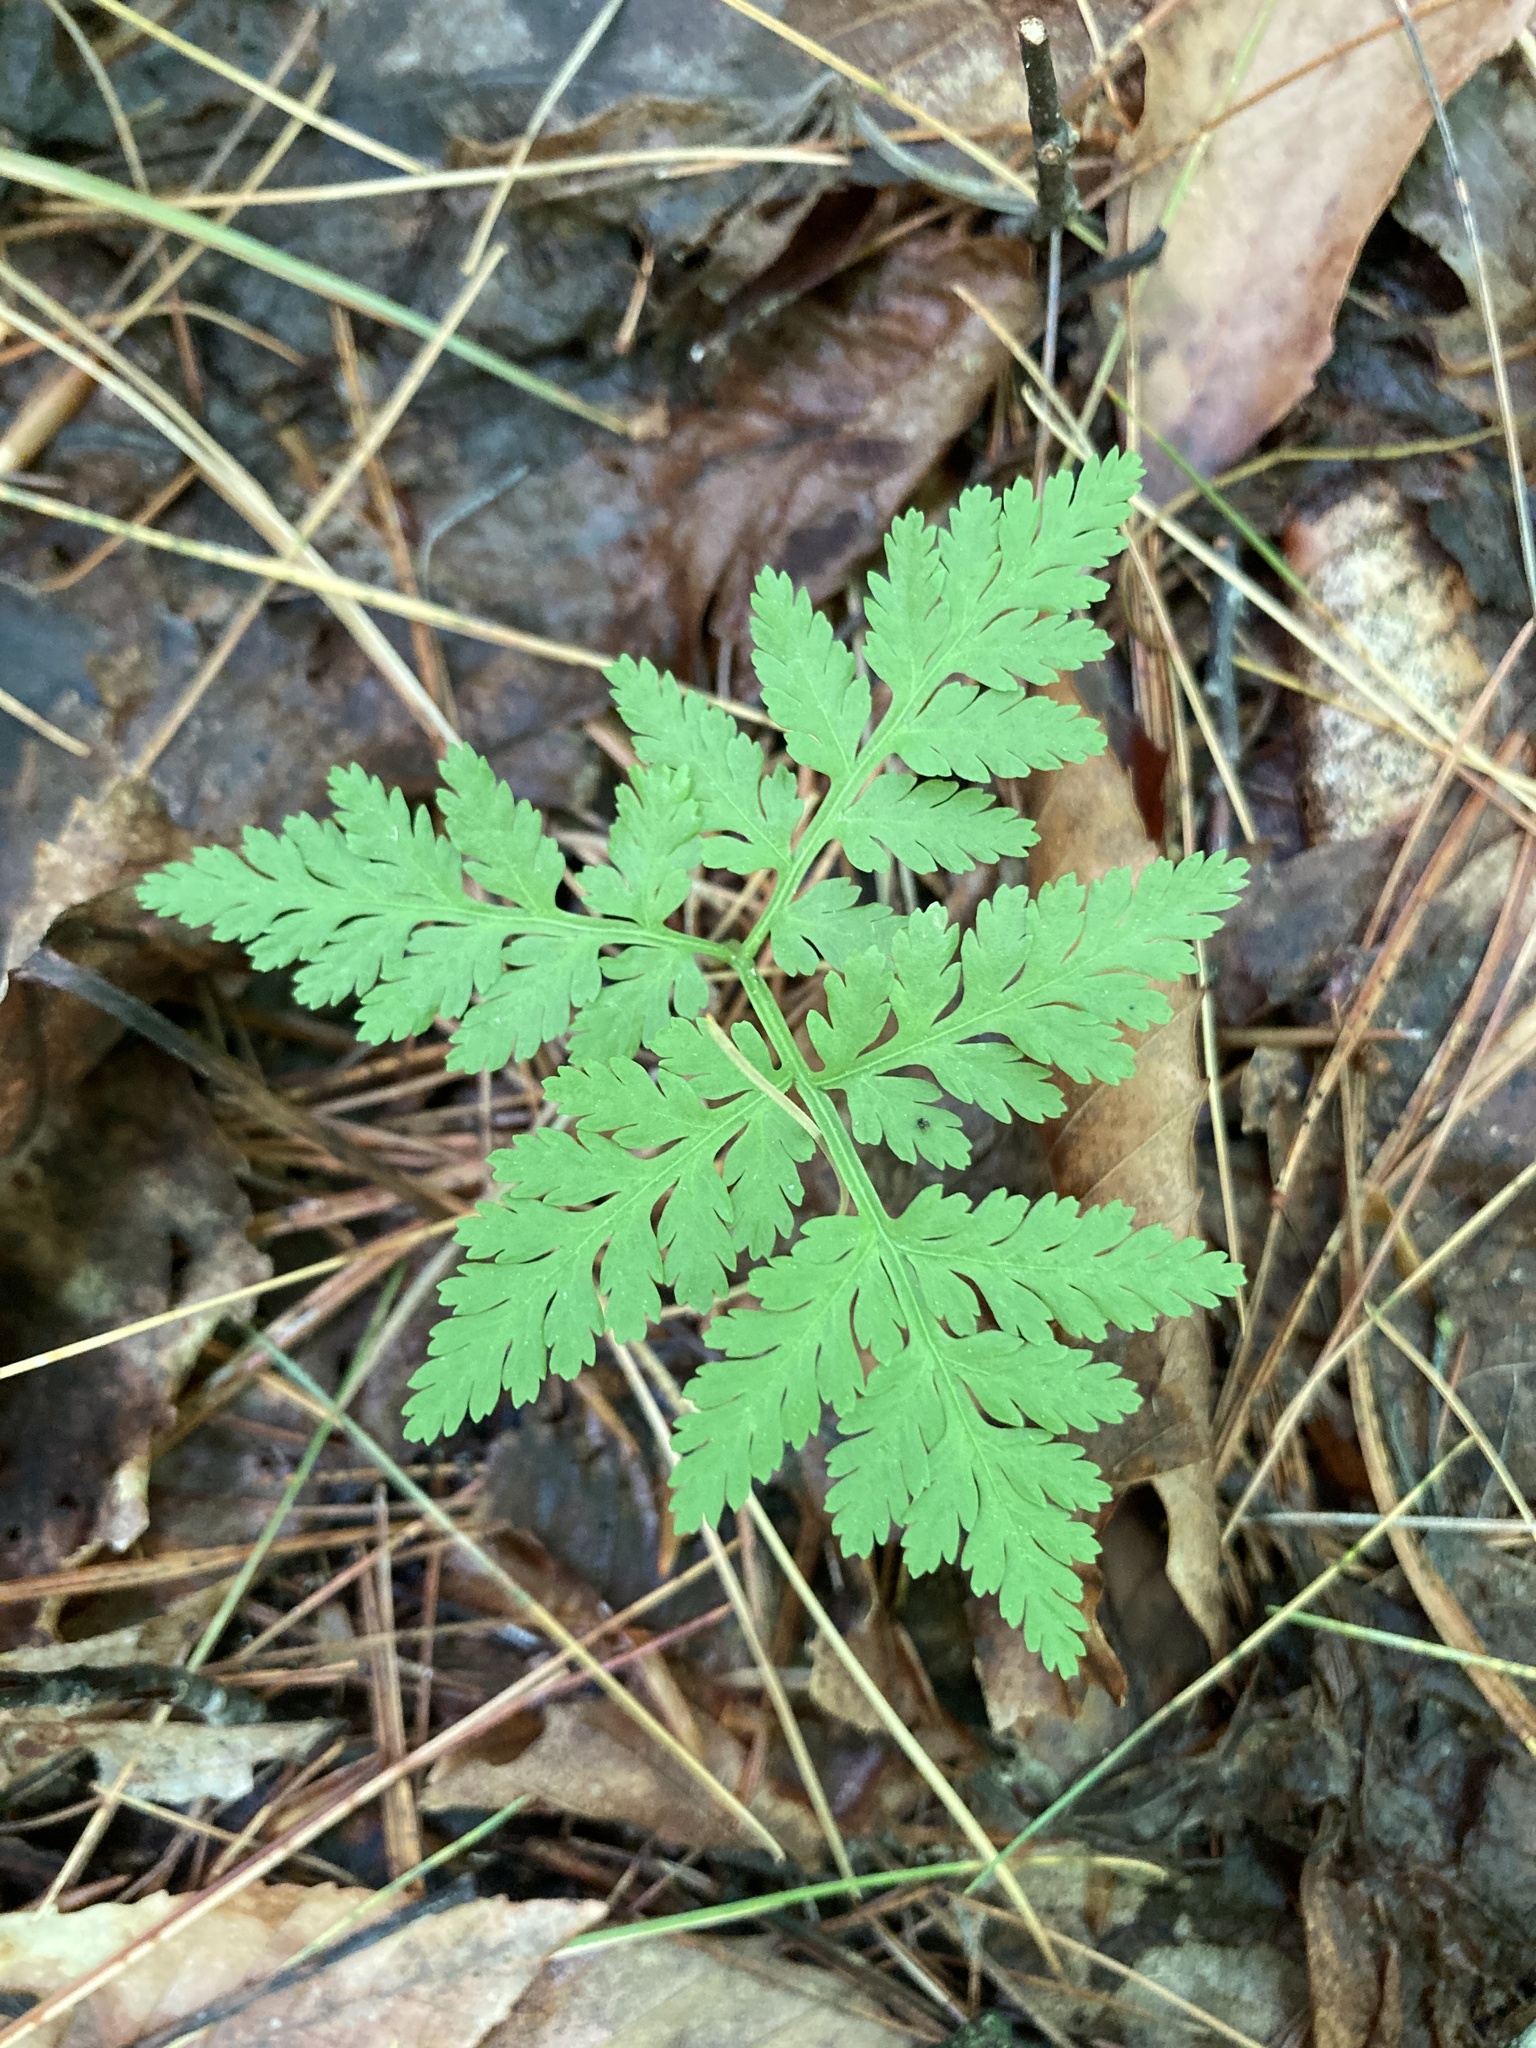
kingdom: Plantae
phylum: Tracheophyta
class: Polypodiopsida
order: Ophioglossales
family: Ophioglossaceae
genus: Botrypus
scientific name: Botrypus virginianus
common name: Common grapefern
